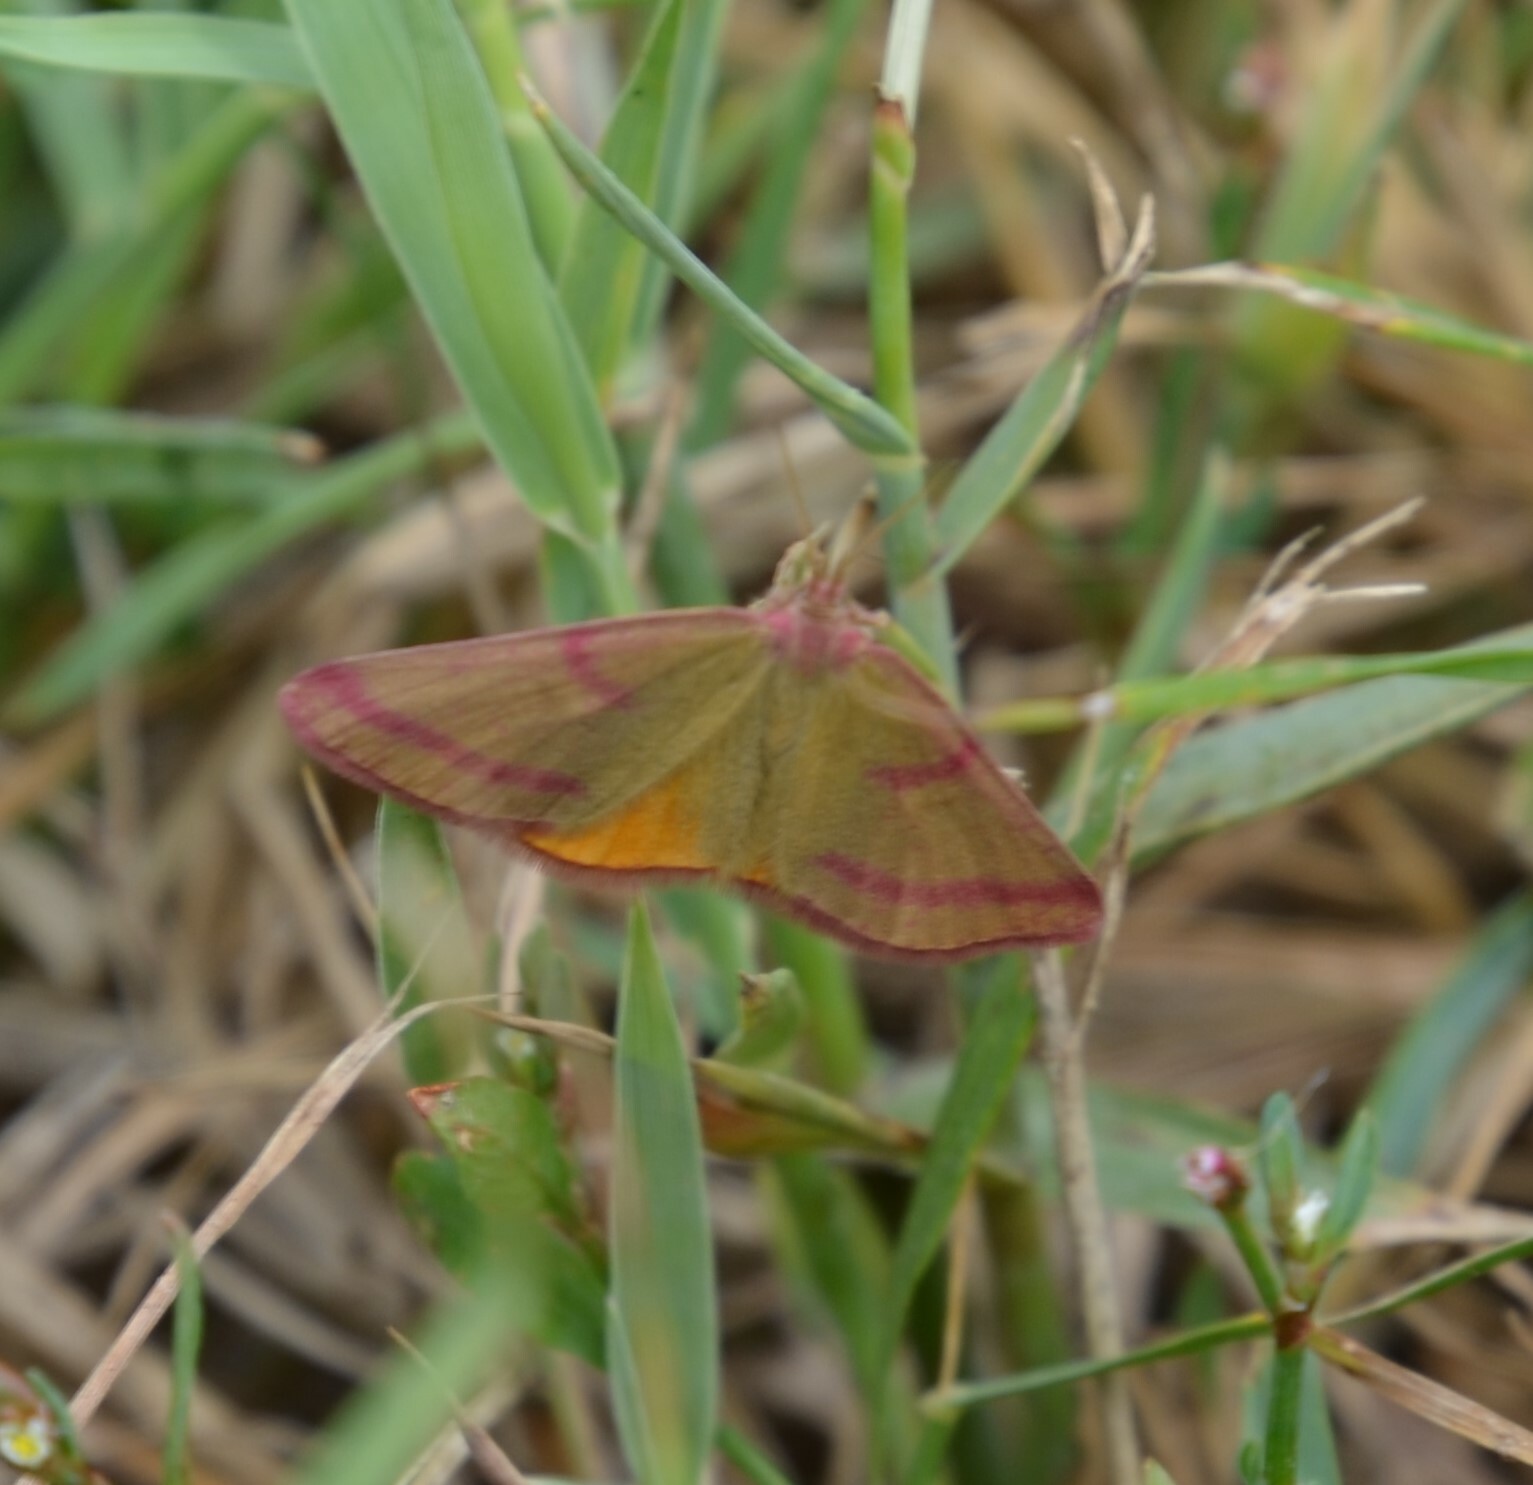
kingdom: Animalia
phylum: Arthropoda
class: Insecta
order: Lepidoptera
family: Geometridae
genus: Lythria
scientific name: Lythria purpuraria
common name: Purple-barred yellow
